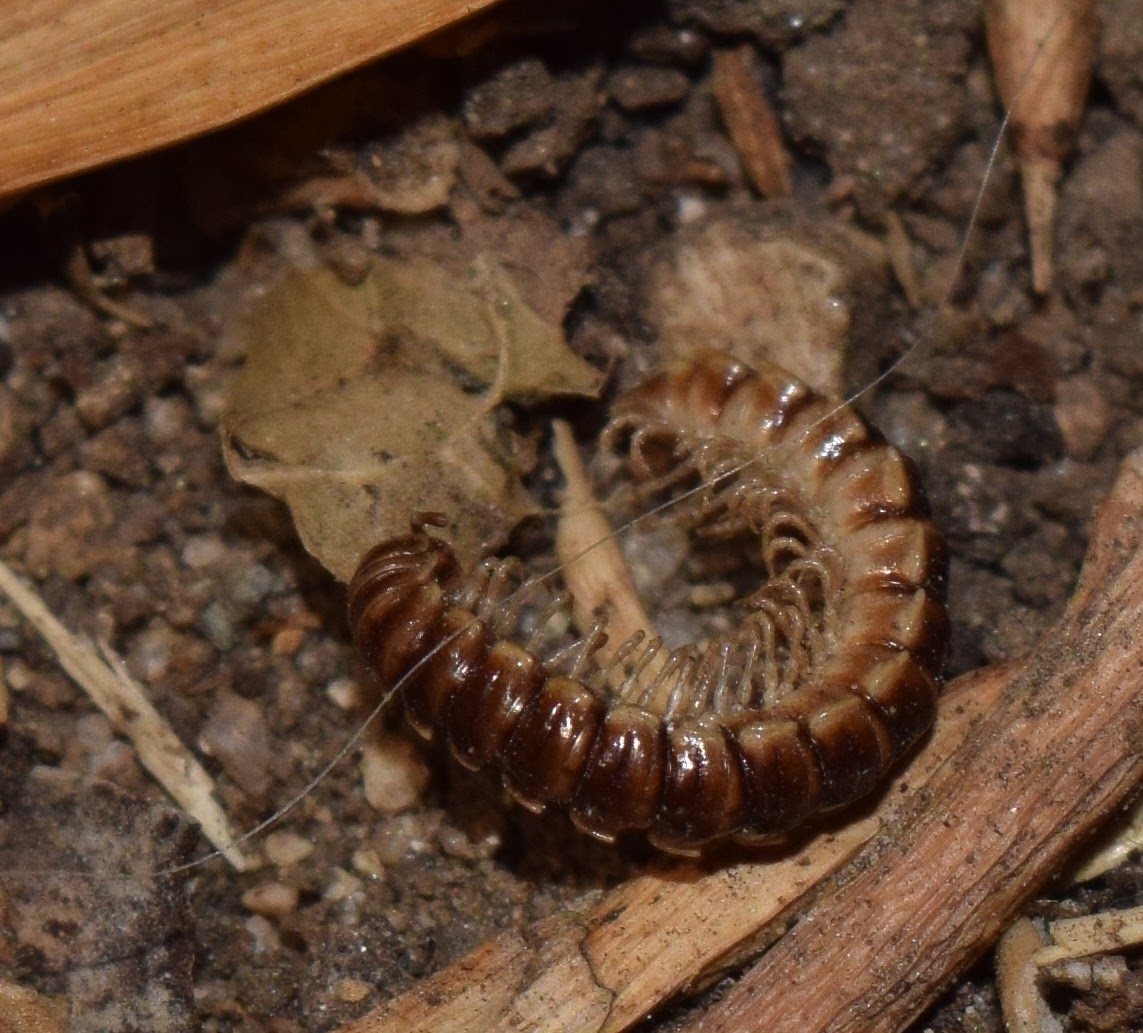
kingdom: Animalia
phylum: Arthropoda
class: Diplopoda
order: Polydesmida
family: Paradoxosomatidae
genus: Oxidus
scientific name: Oxidus gracilis
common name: Greenhouse millipede
